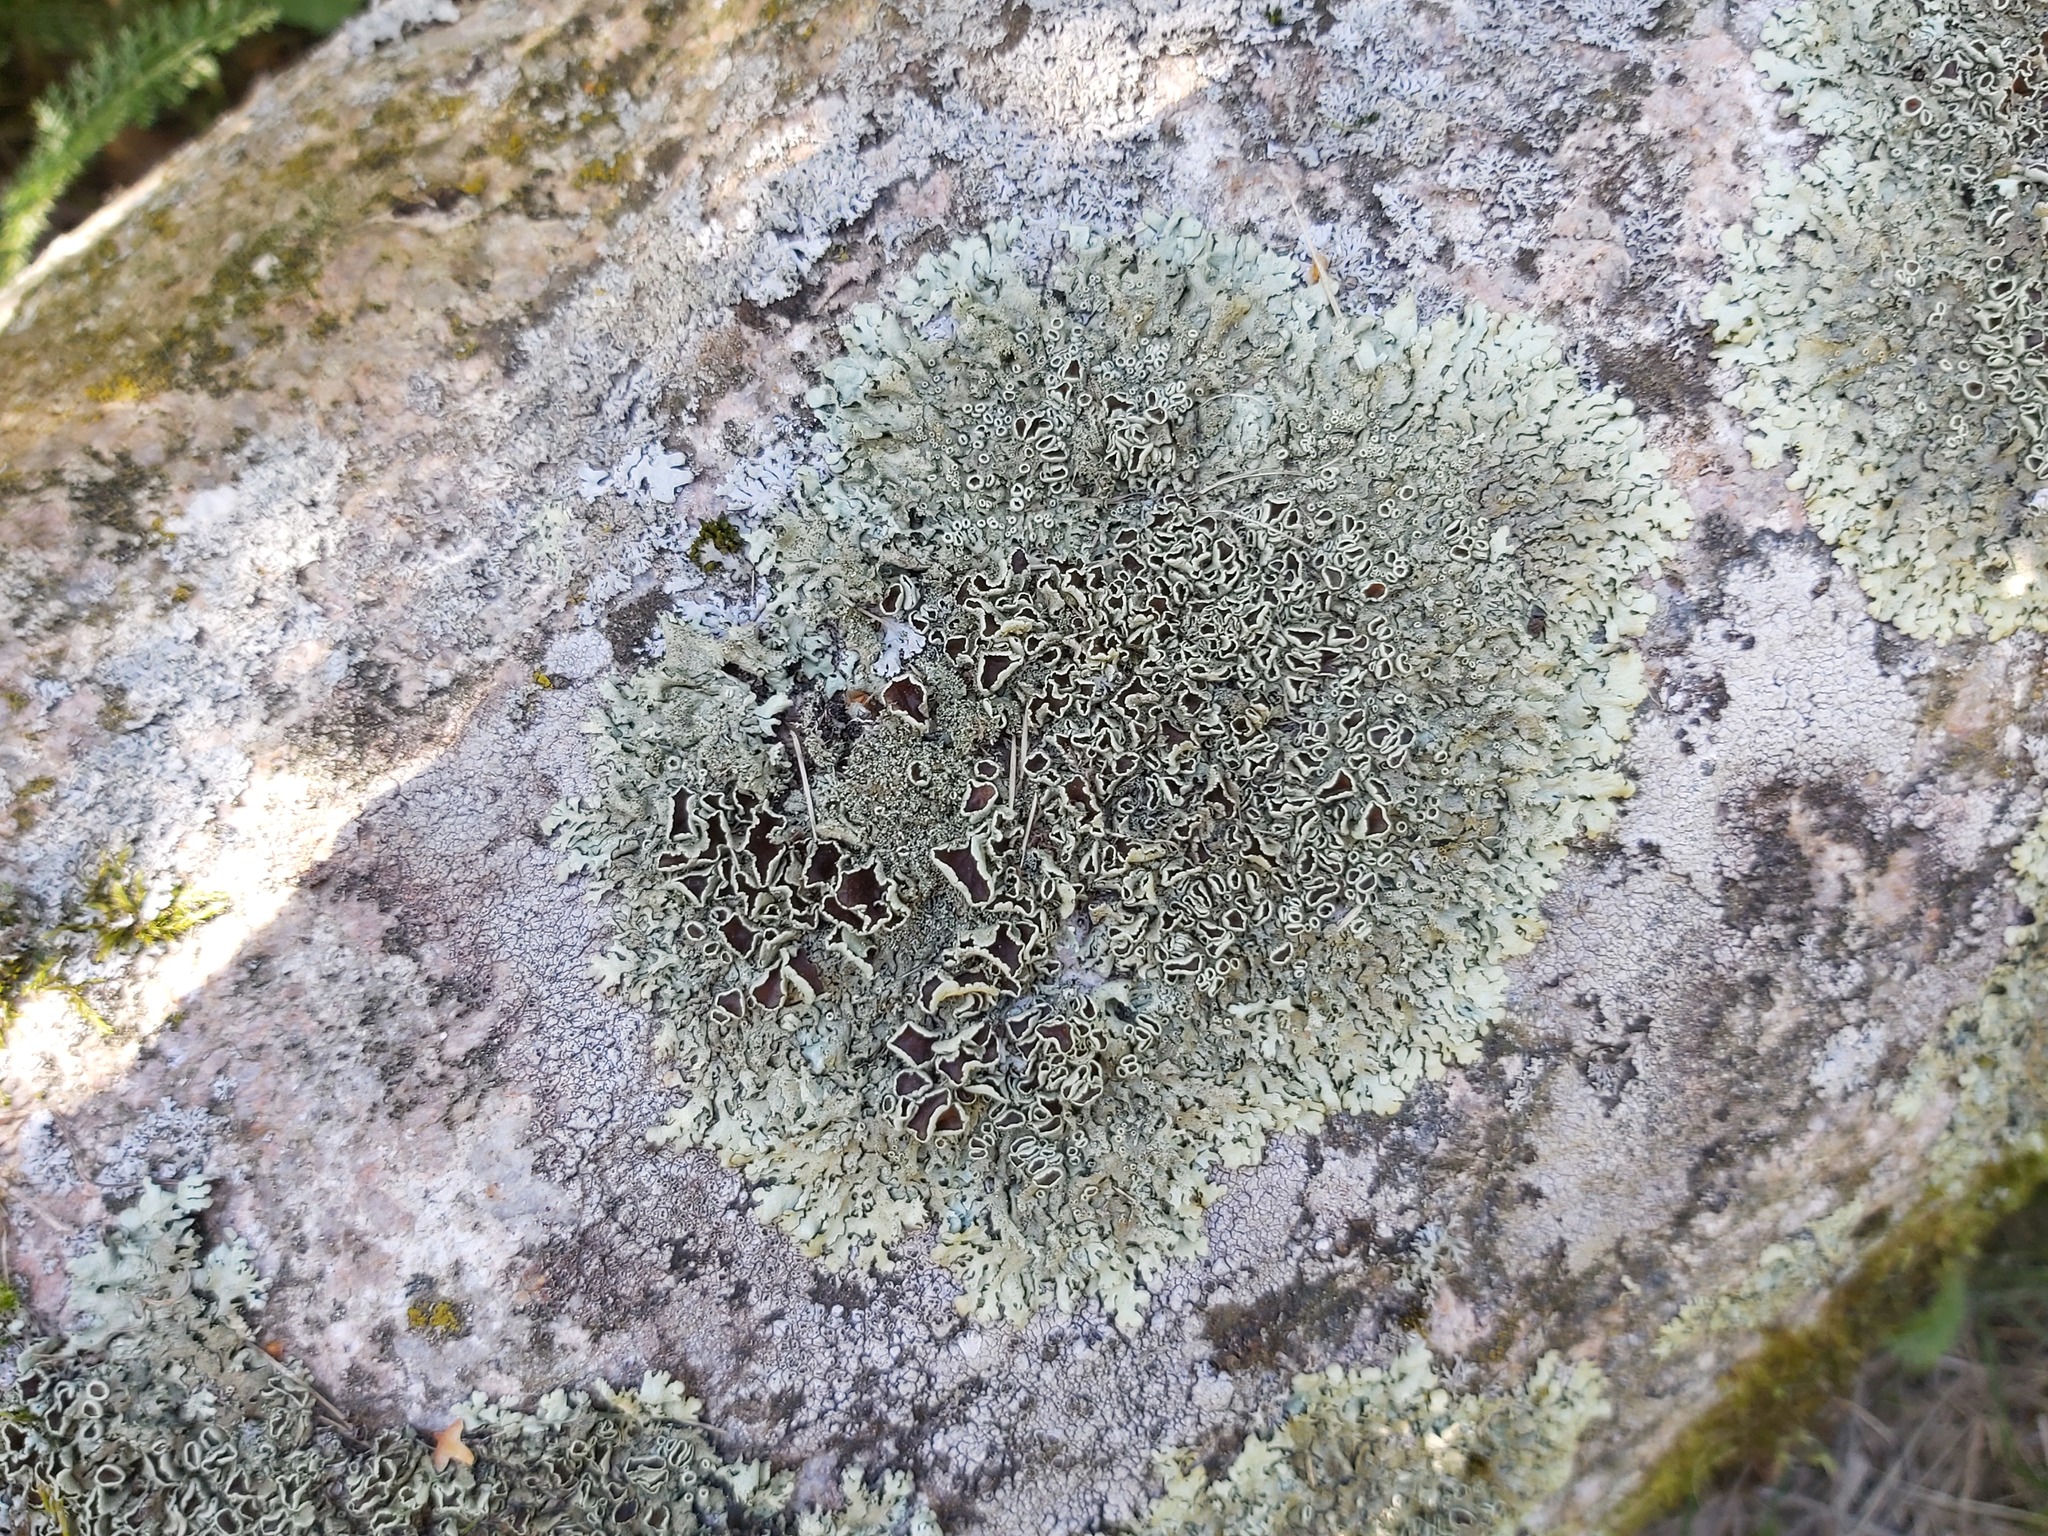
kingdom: Fungi
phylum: Ascomycota
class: Lecanoromycetes
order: Lecanorales
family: Parmeliaceae
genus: Xanthoparmelia
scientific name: Xanthoparmelia conspersa
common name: Peppered rock shield
